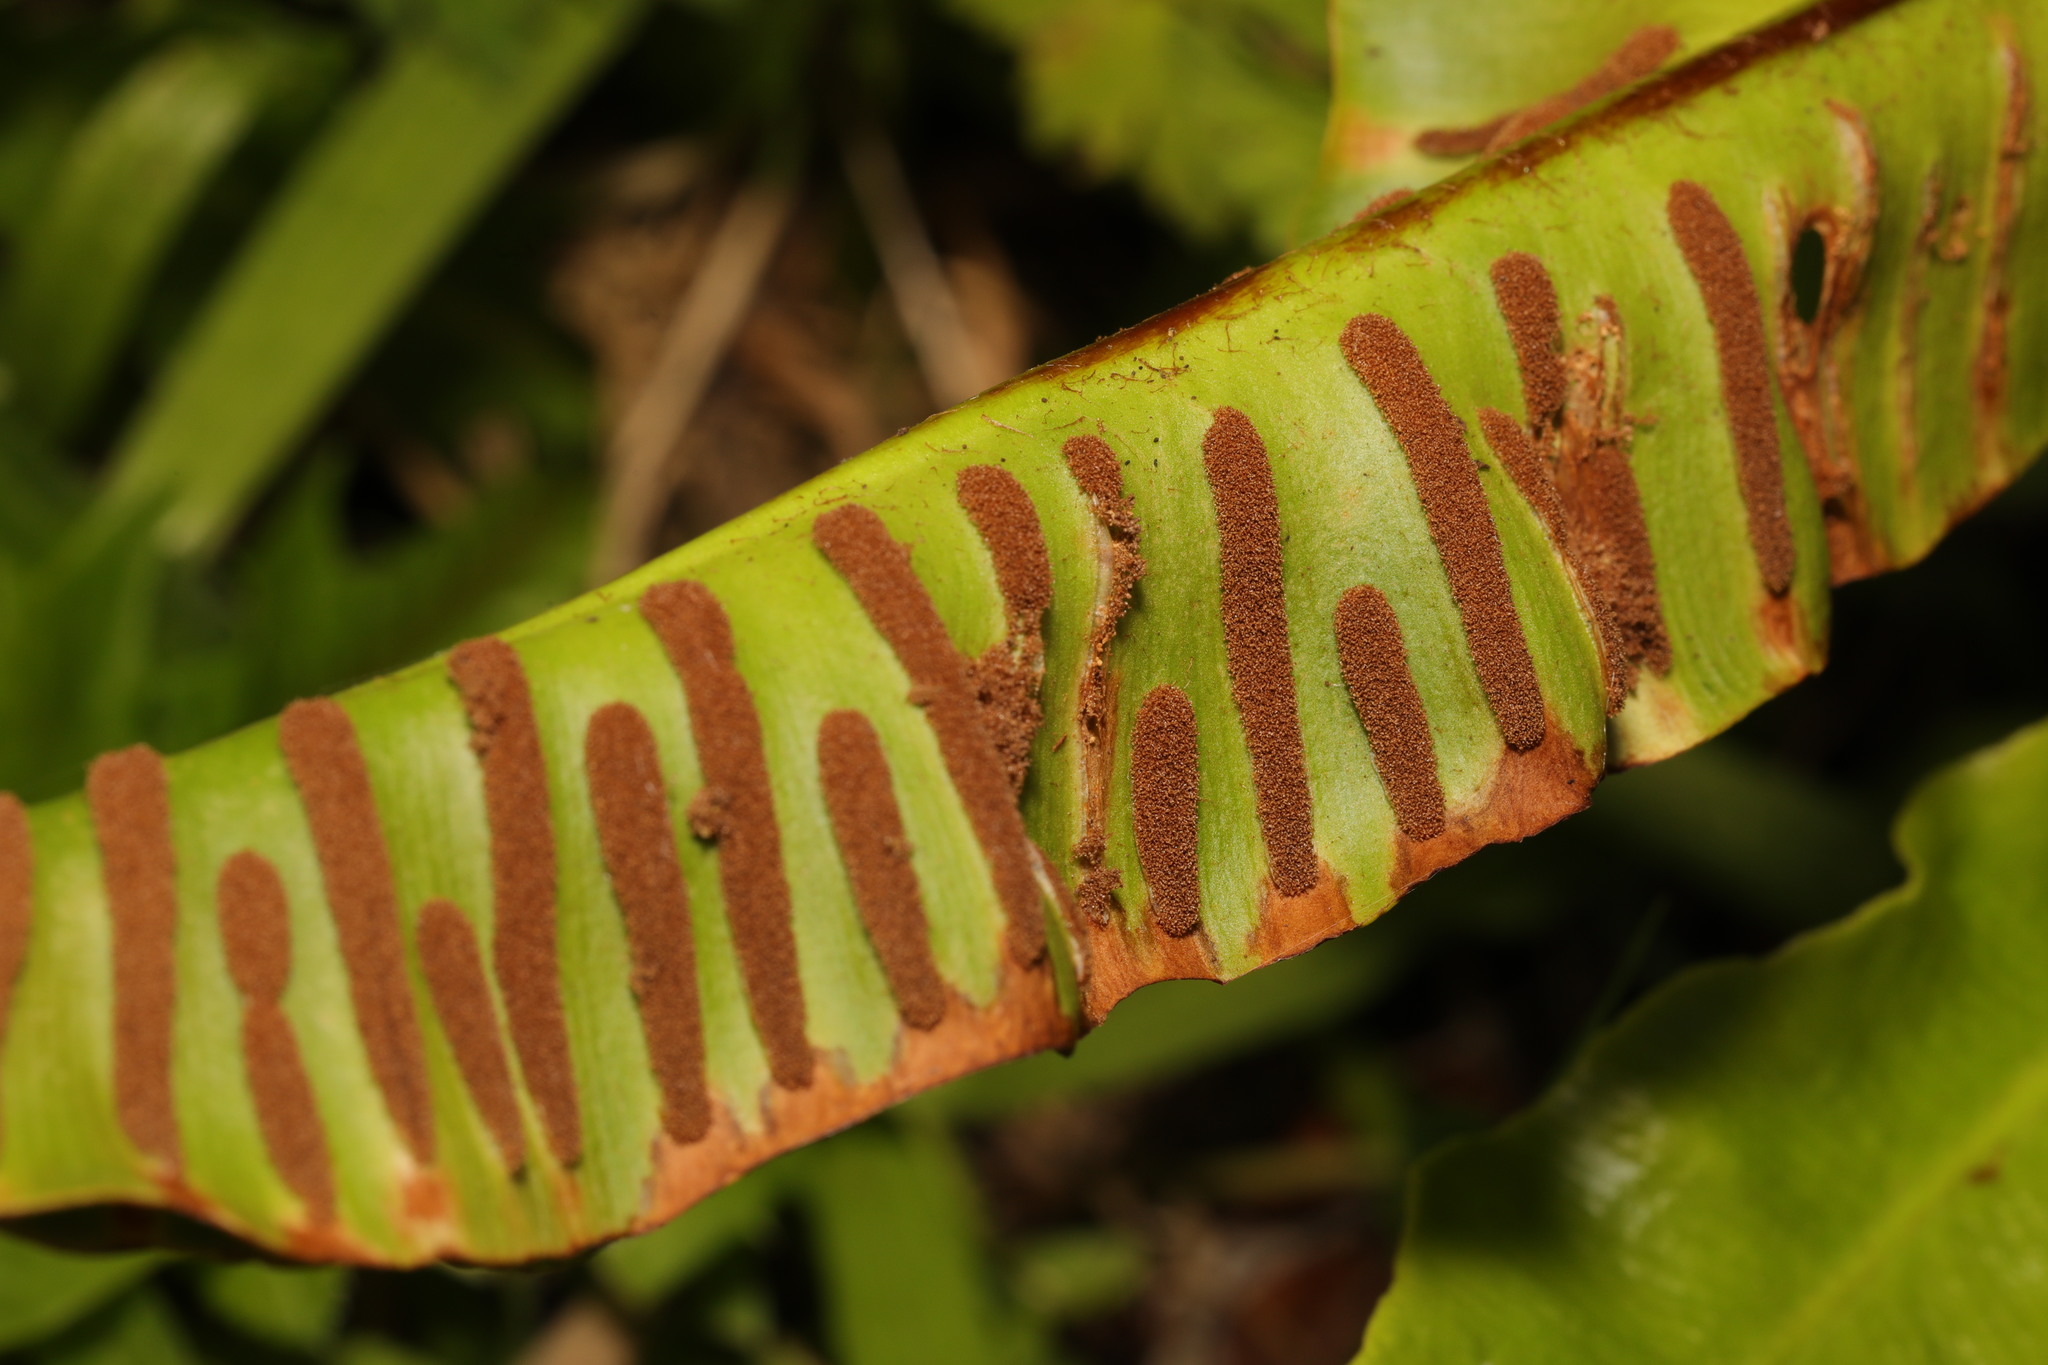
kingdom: Plantae
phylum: Tracheophyta
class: Polypodiopsida
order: Polypodiales
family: Aspleniaceae
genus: Asplenium
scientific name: Asplenium scolopendrium
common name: Hart's-tongue fern
